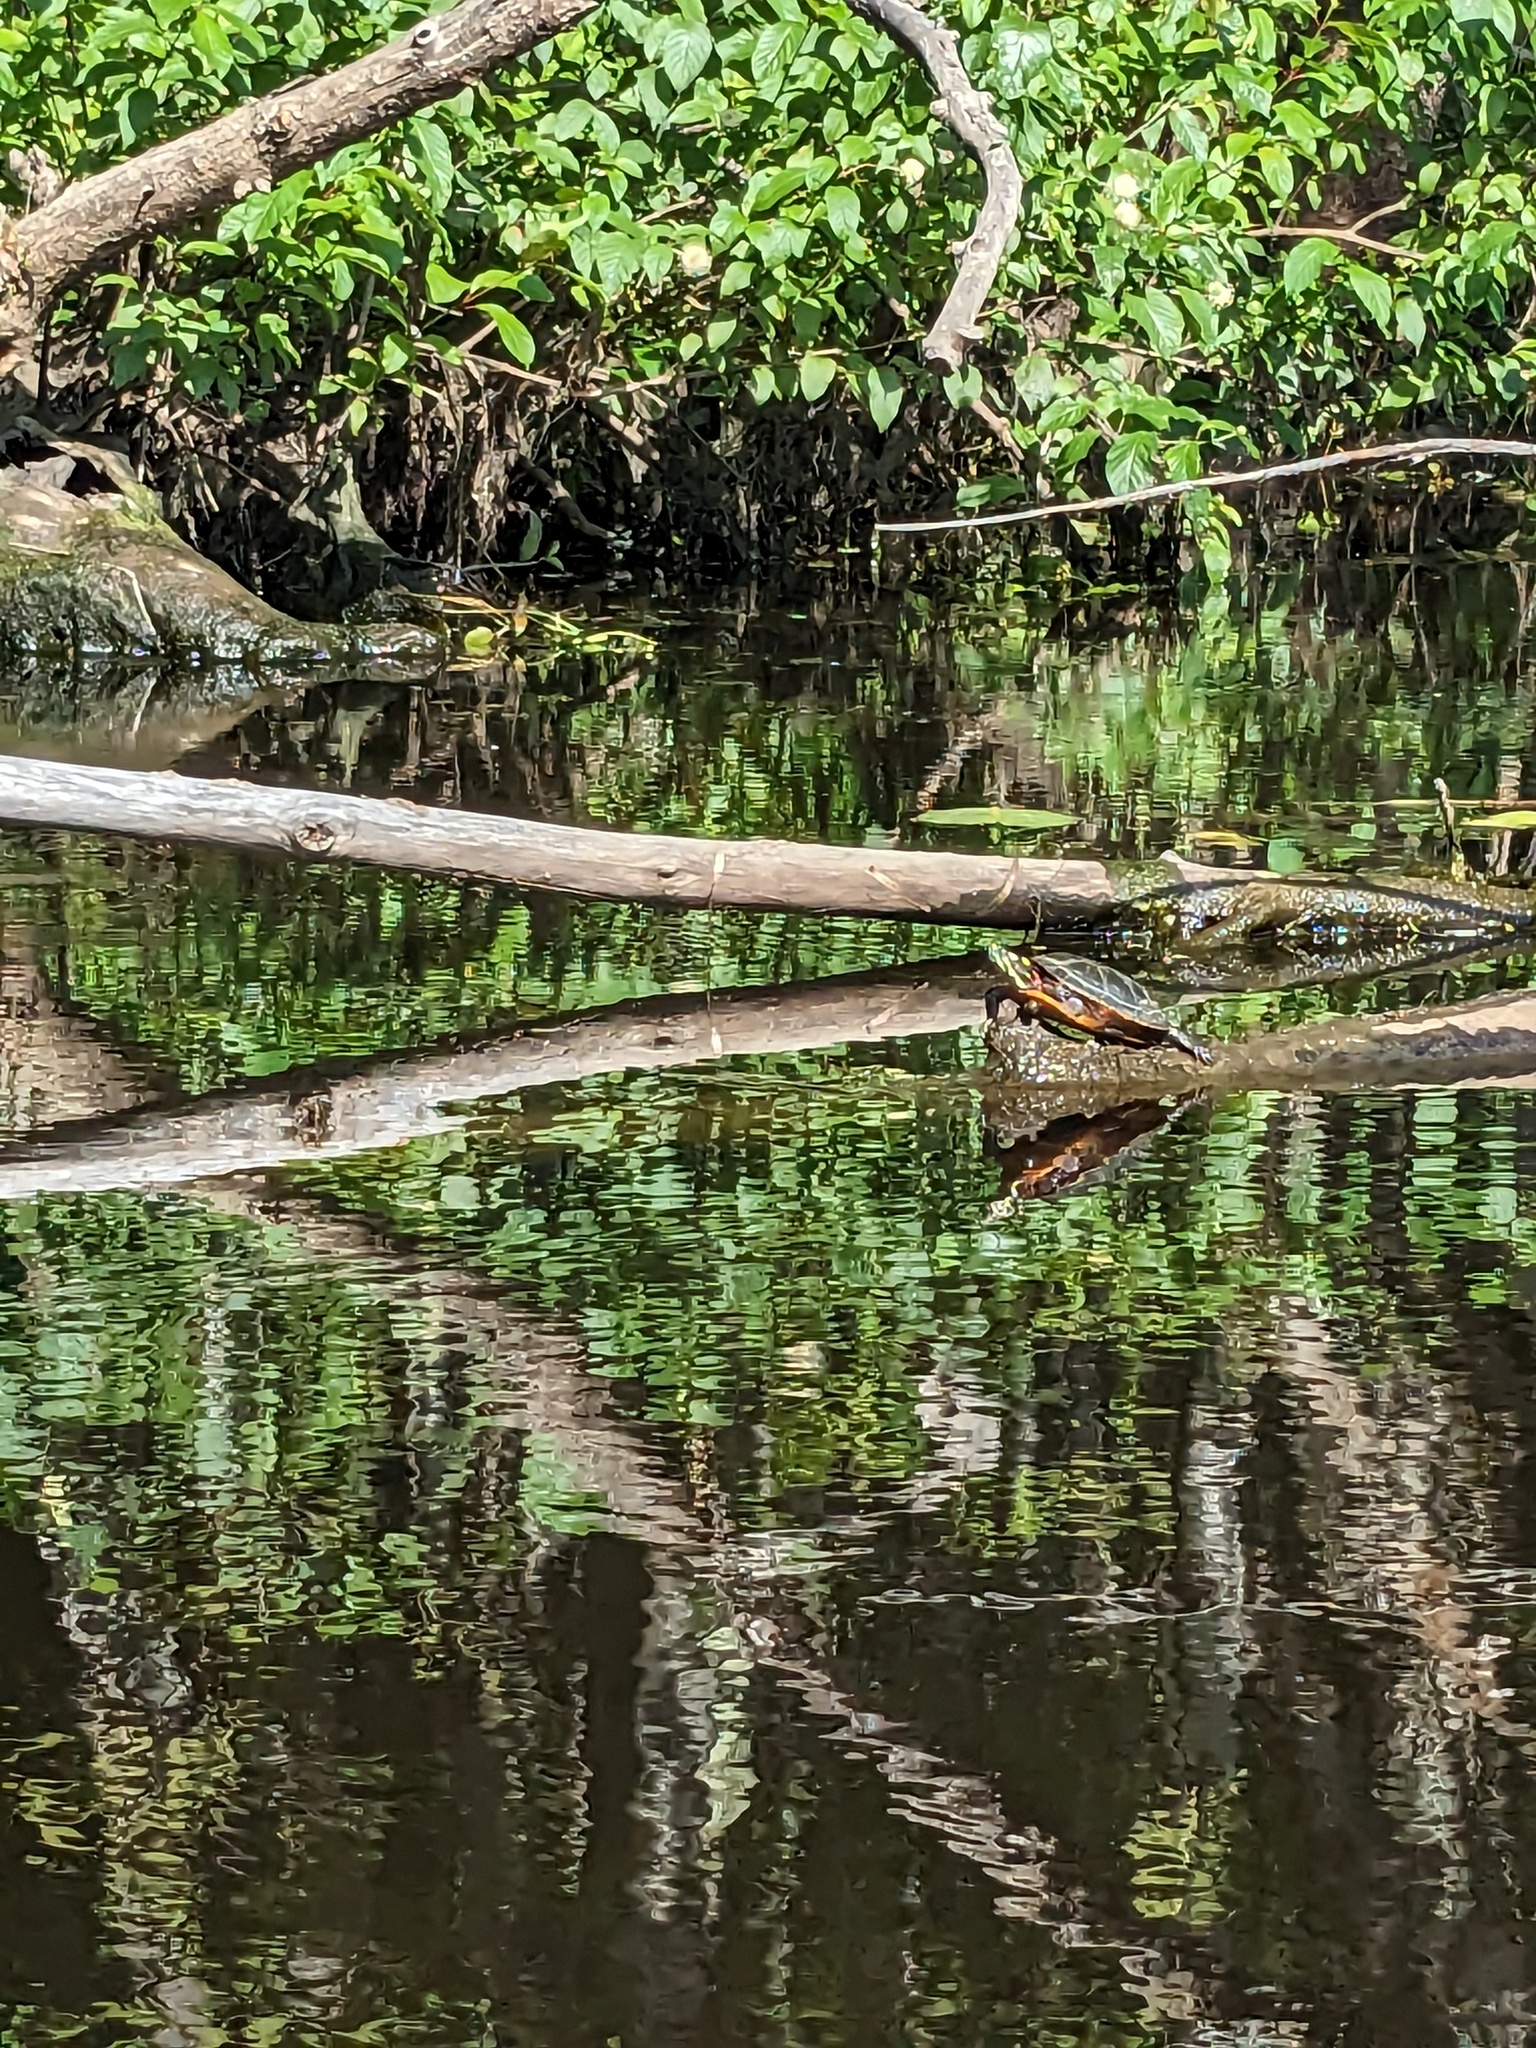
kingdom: Animalia
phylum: Chordata
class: Testudines
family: Emydidae
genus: Chrysemys
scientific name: Chrysemys picta
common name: Painted turtle
